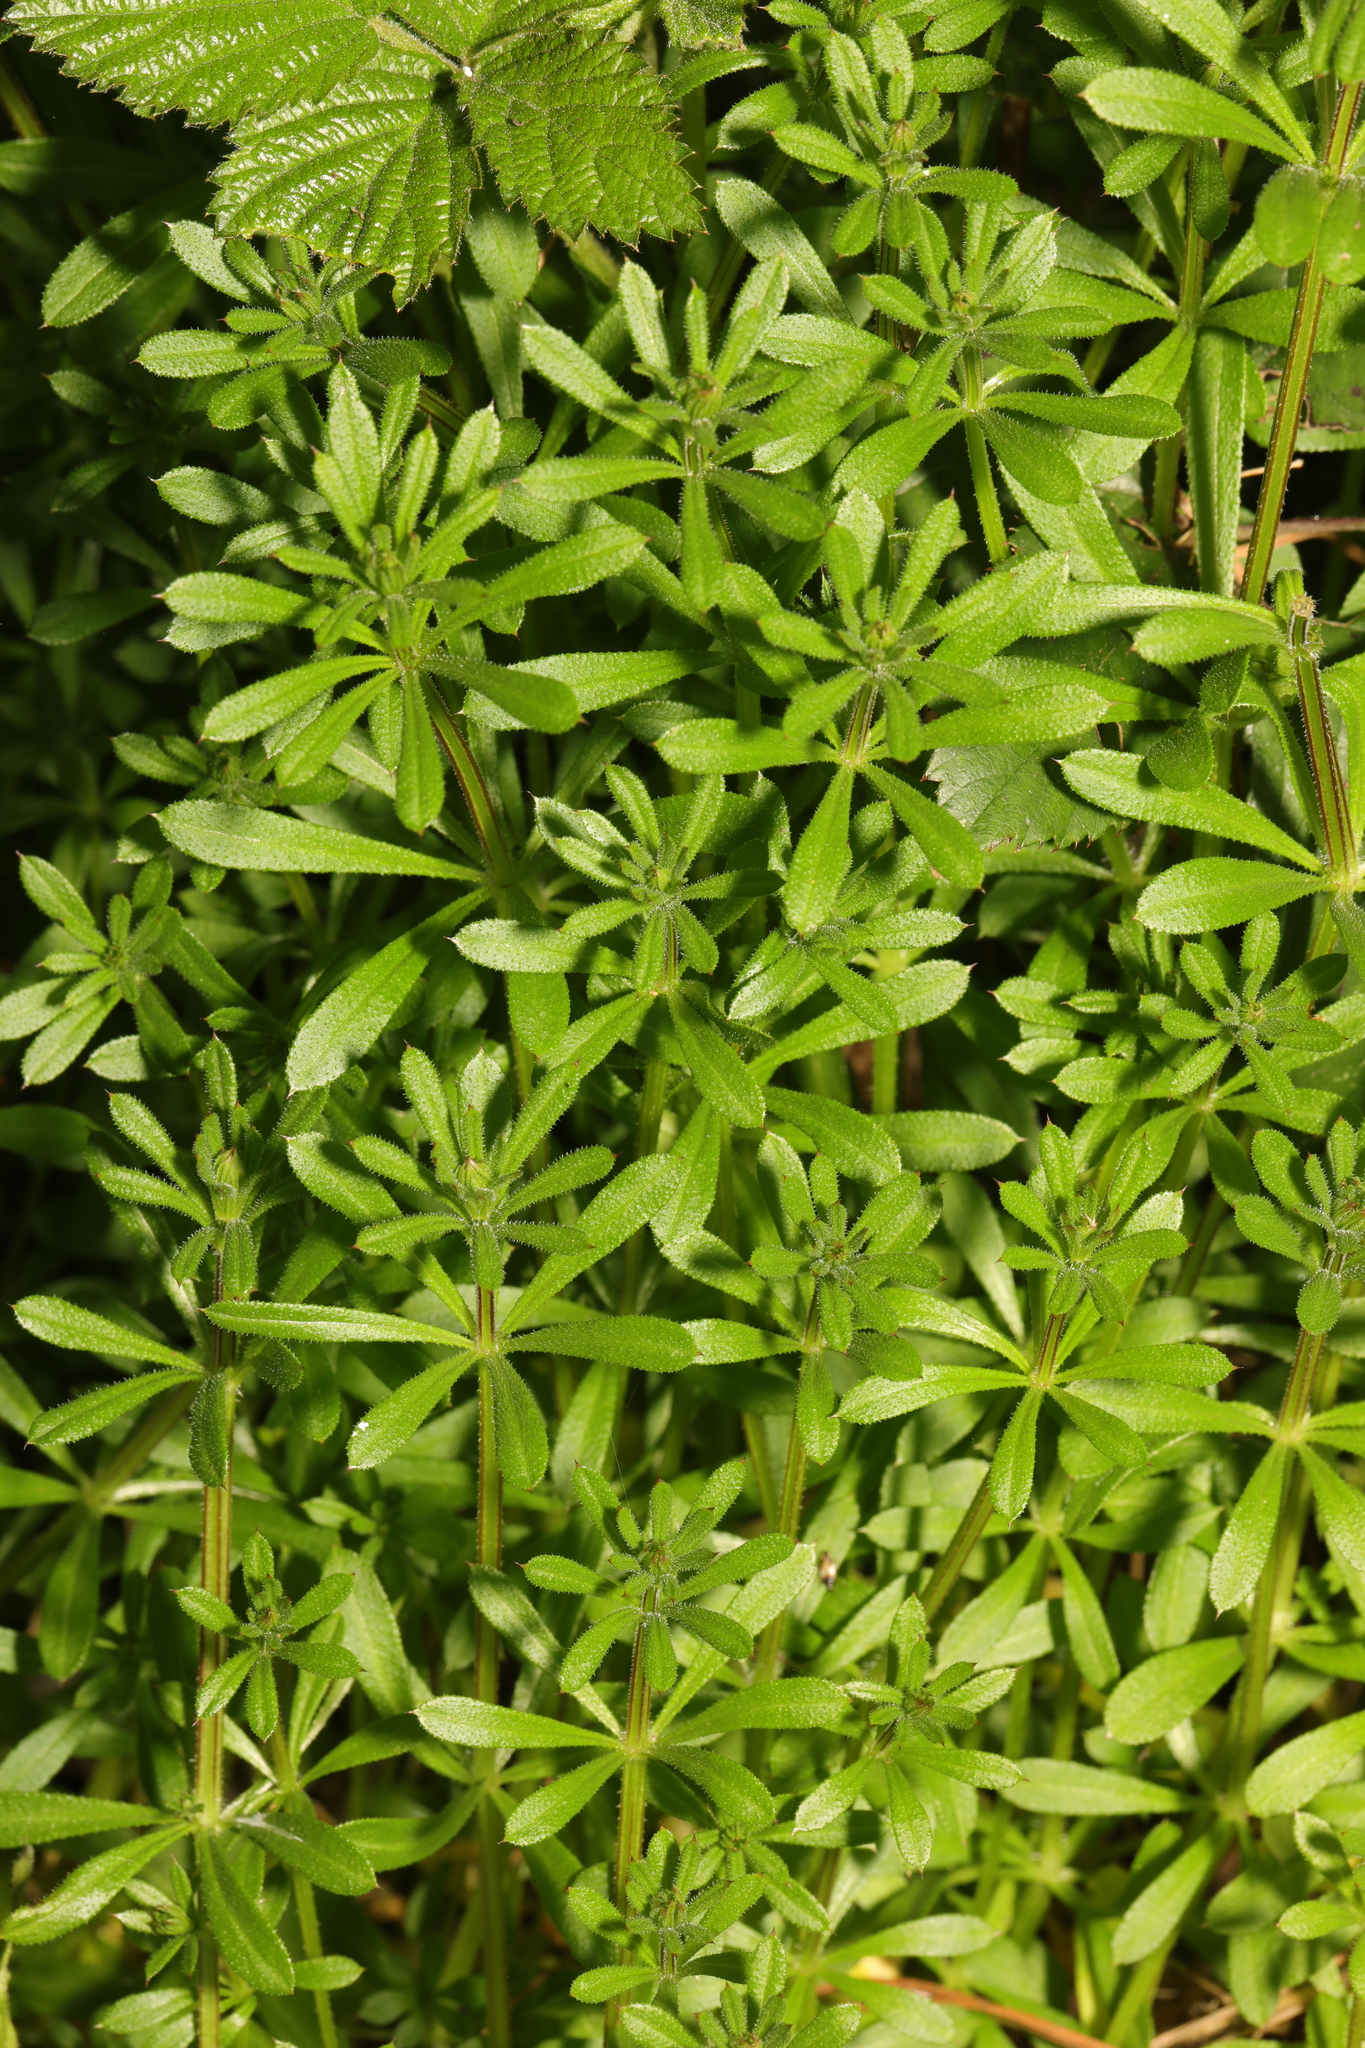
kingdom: Plantae
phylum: Tracheophyta
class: Magnoliopsida
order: Gentianales
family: Rubiaceae
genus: Galium
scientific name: Galium aparine
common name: Cleavers
